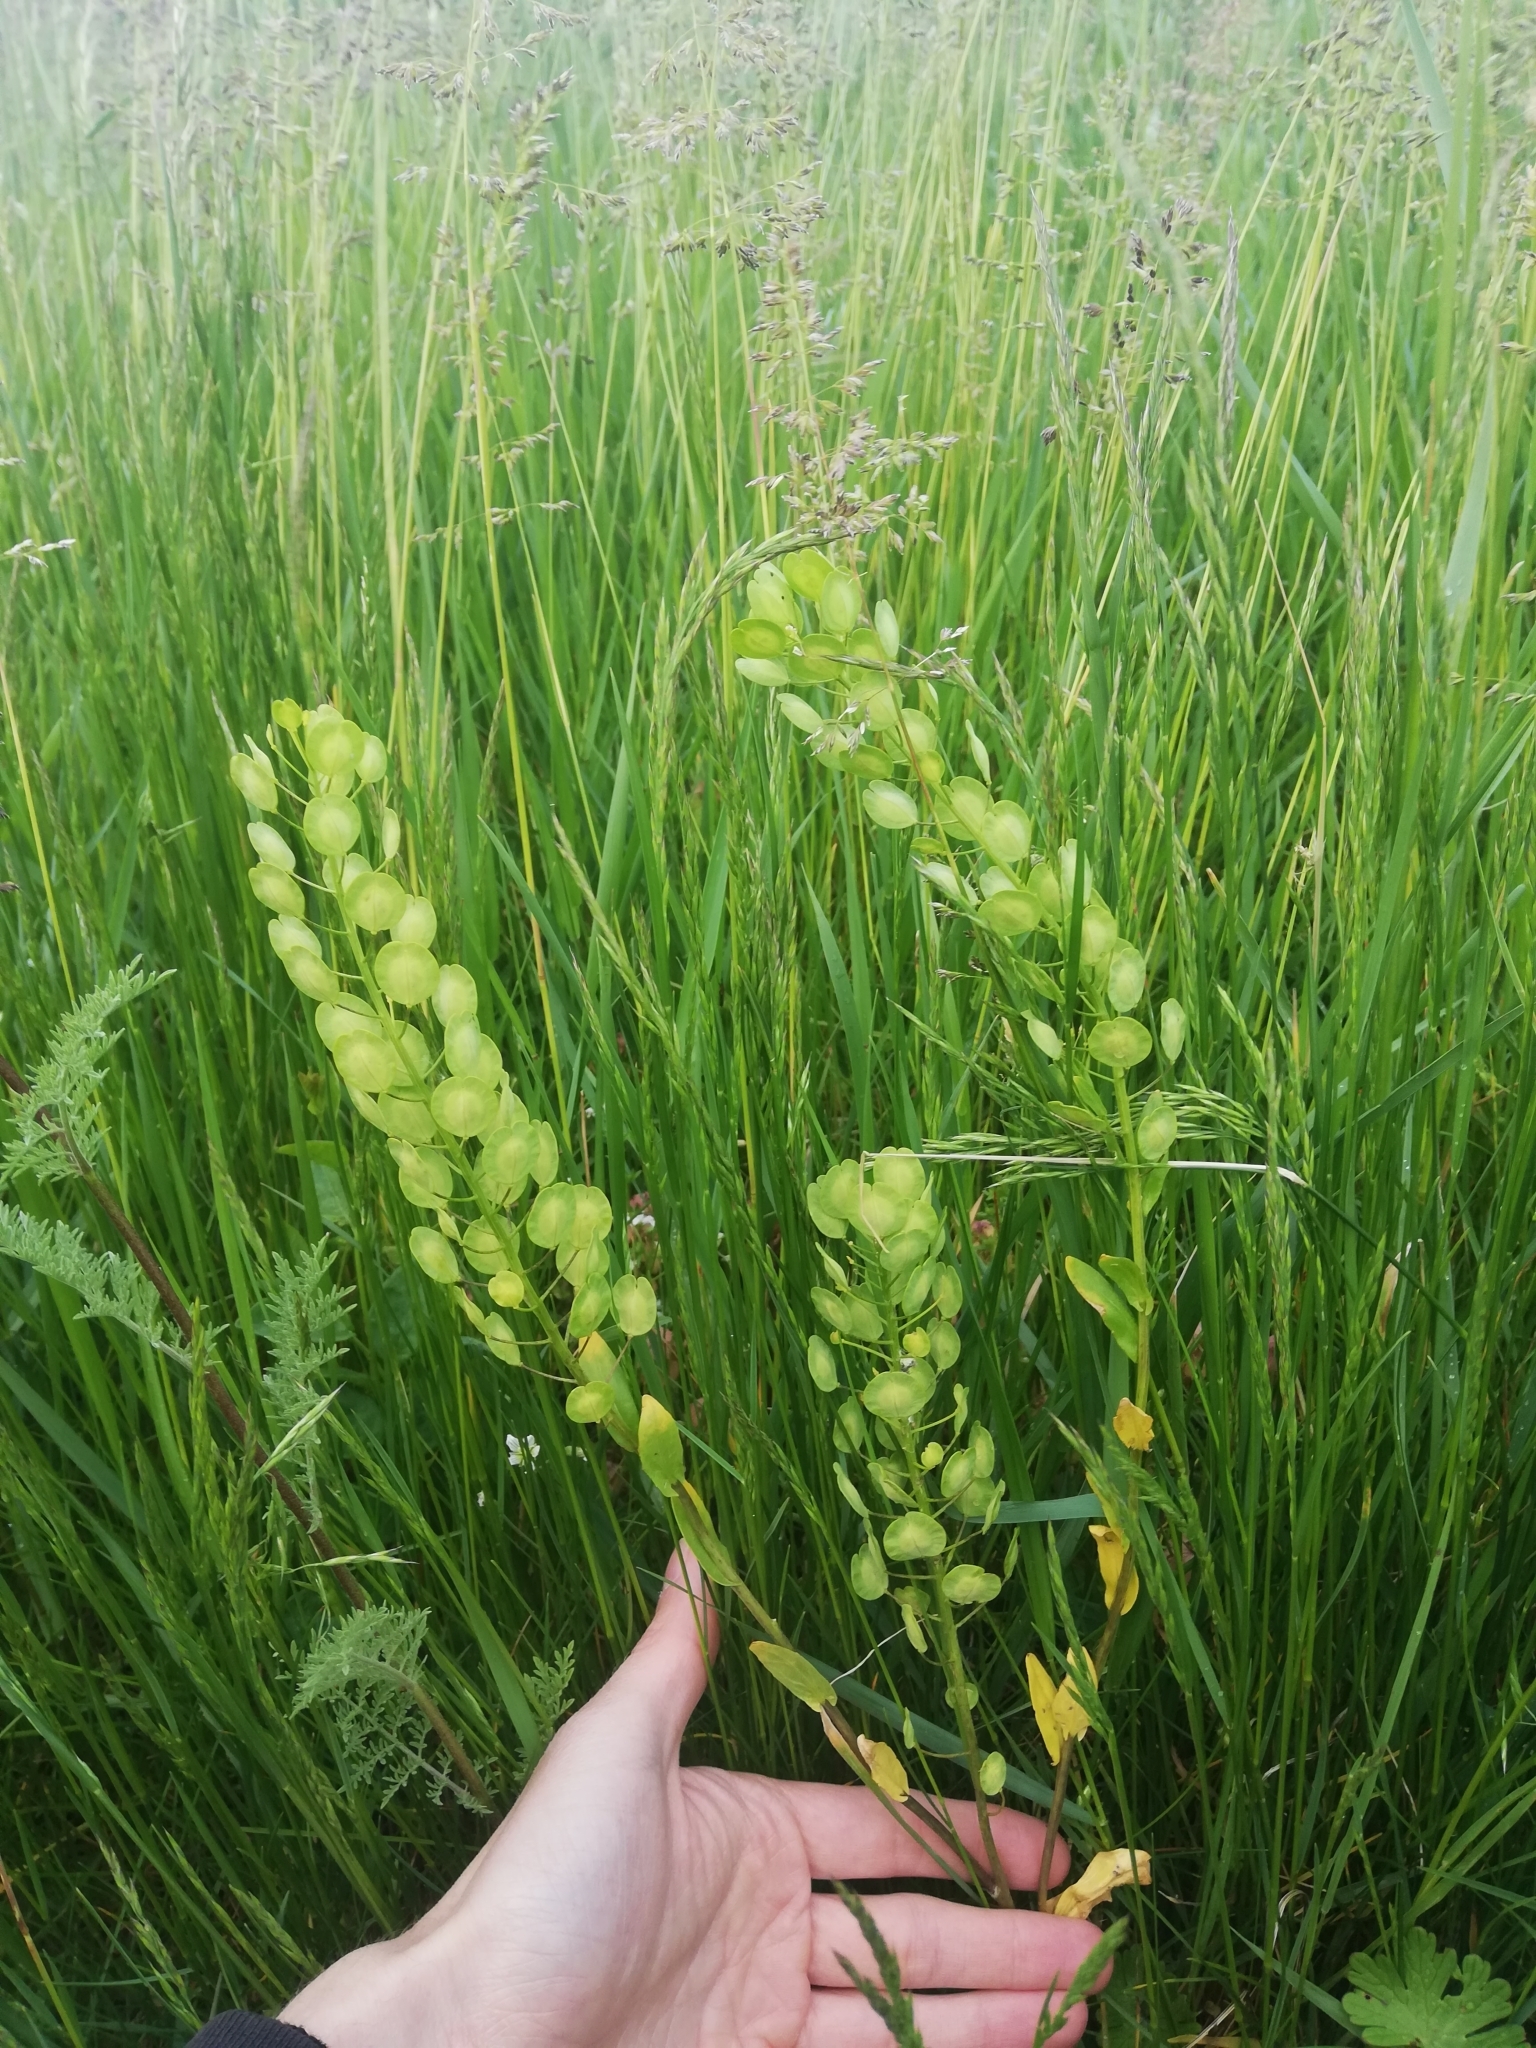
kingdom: Plantae
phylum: Tracheophyta
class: Magnoliopsida
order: Brassicales
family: Brassicaceae
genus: Thlaspi
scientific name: Thlaspi arvense
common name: Field pennycress
